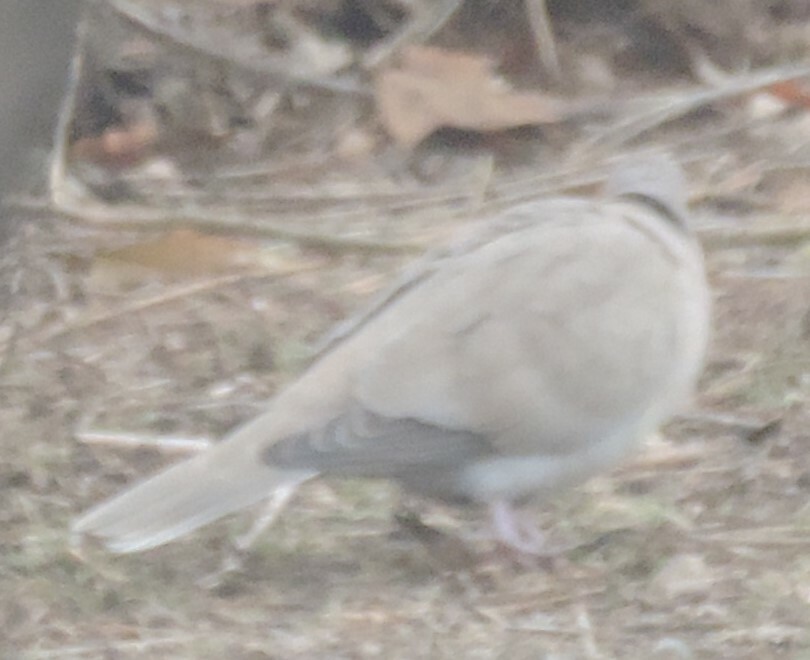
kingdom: Animalia
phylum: Chordata
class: Aves
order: Columbiformes
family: Columbidae
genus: Streptopelia
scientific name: Streptopelia decaocto
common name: Eurasian collared dove
